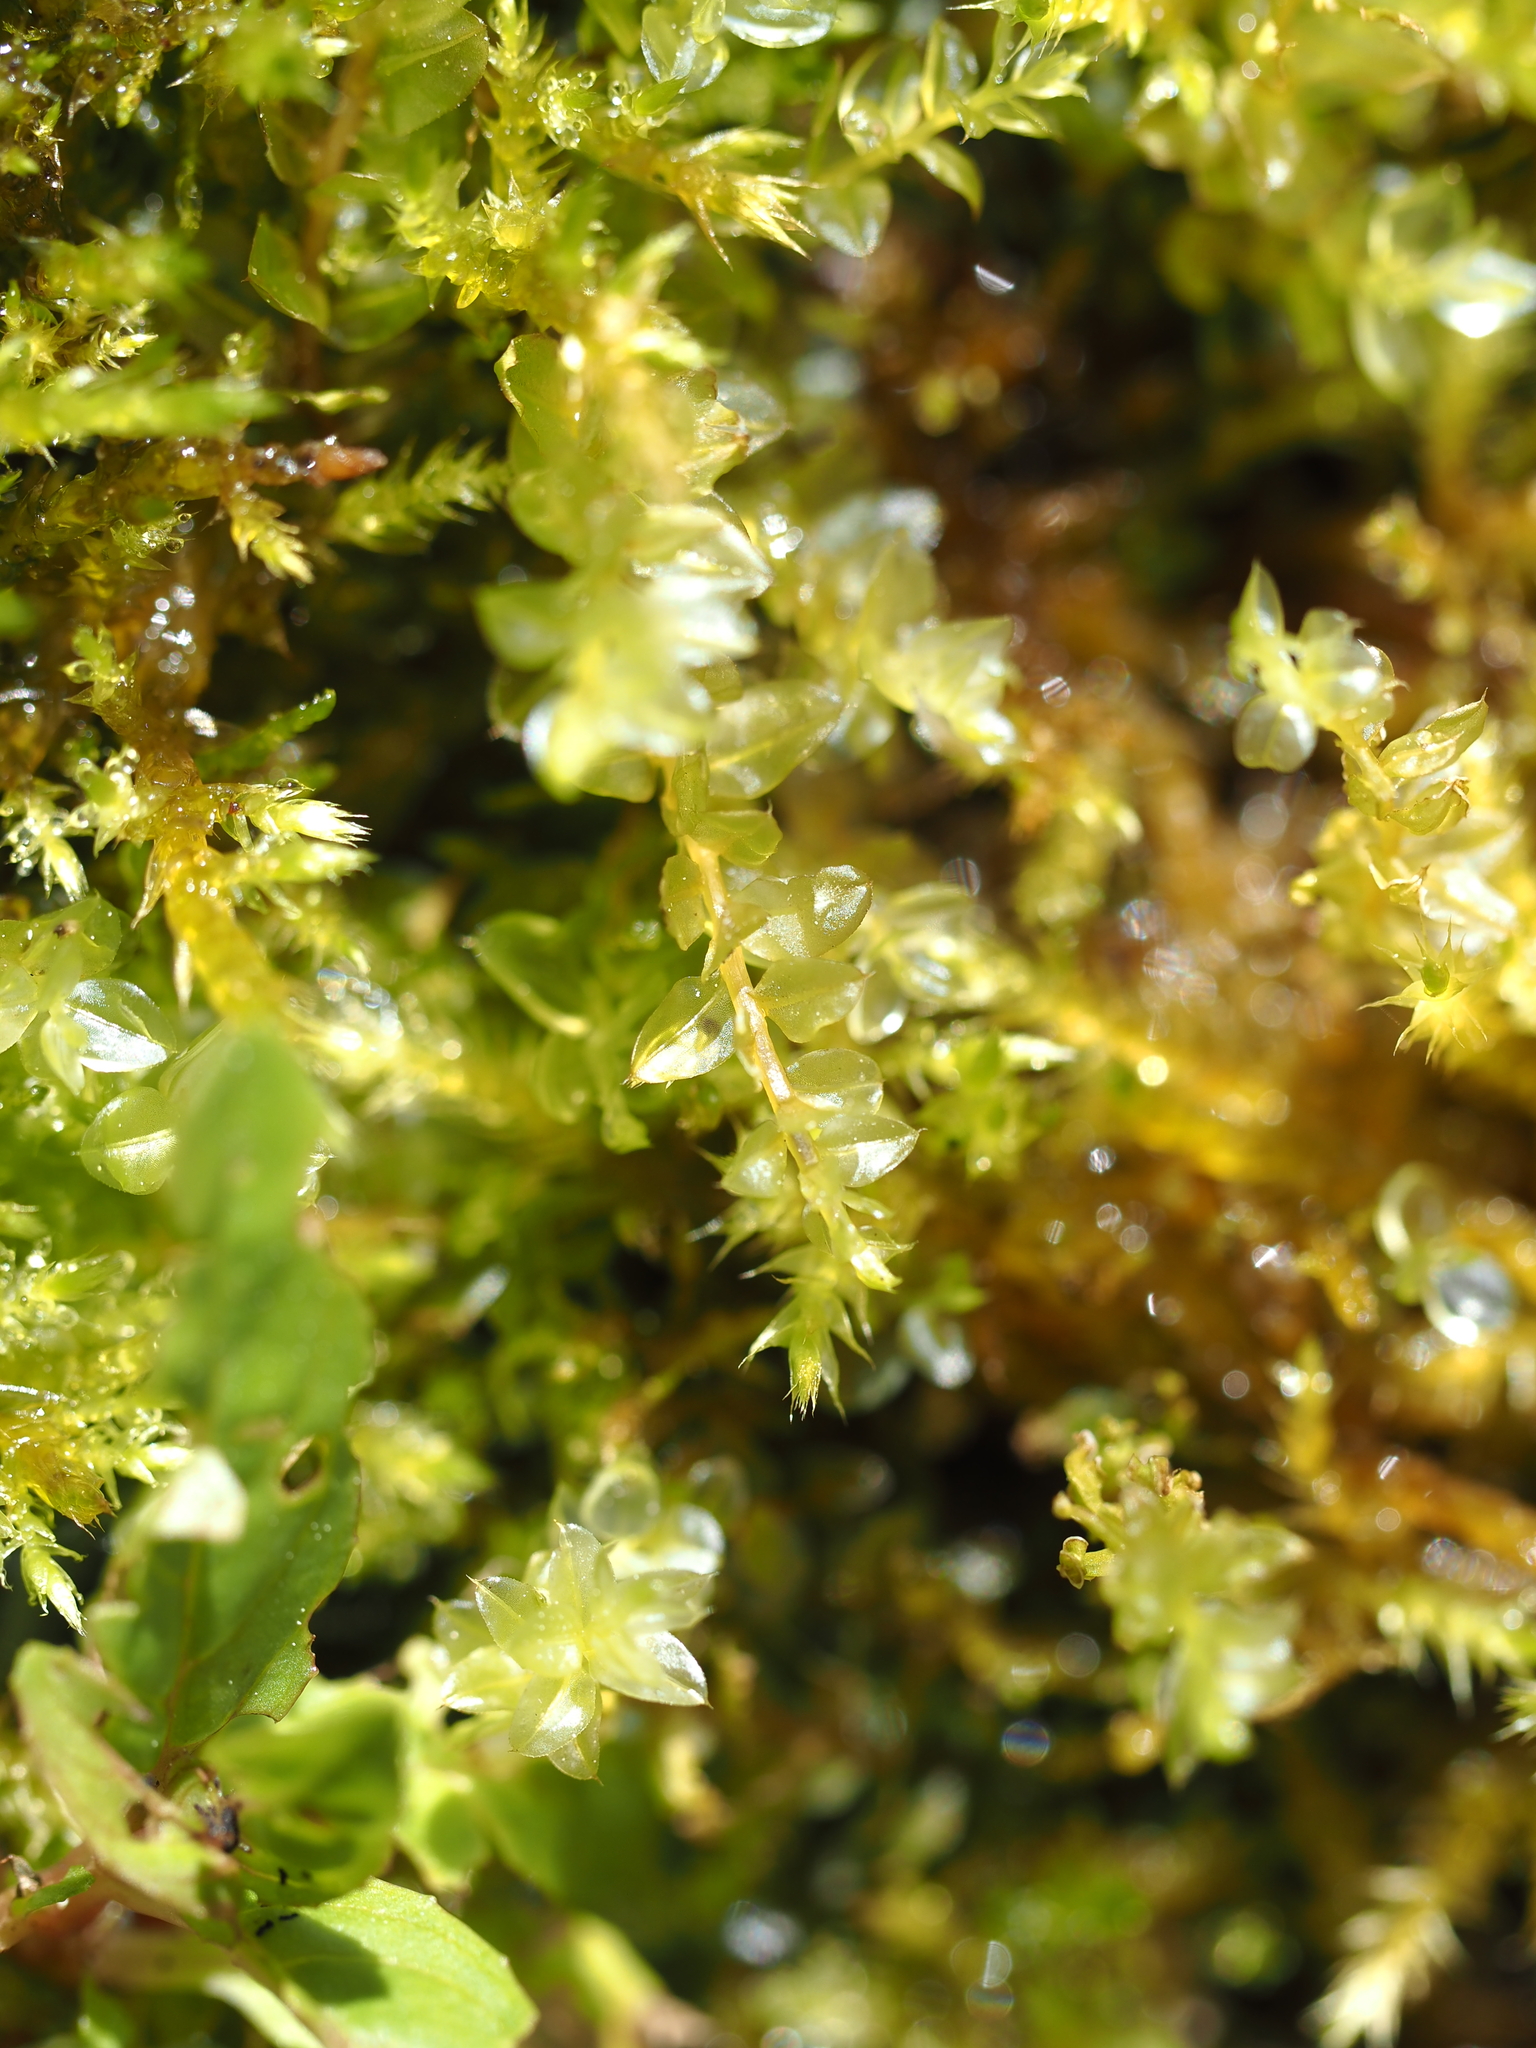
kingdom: Plantae
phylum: Bryophyta
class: Bryopsida
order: Bryales
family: Mniaceae
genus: Plagiomnium
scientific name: Plagiomnium cuspidatum
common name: Woodsy leafy moss
